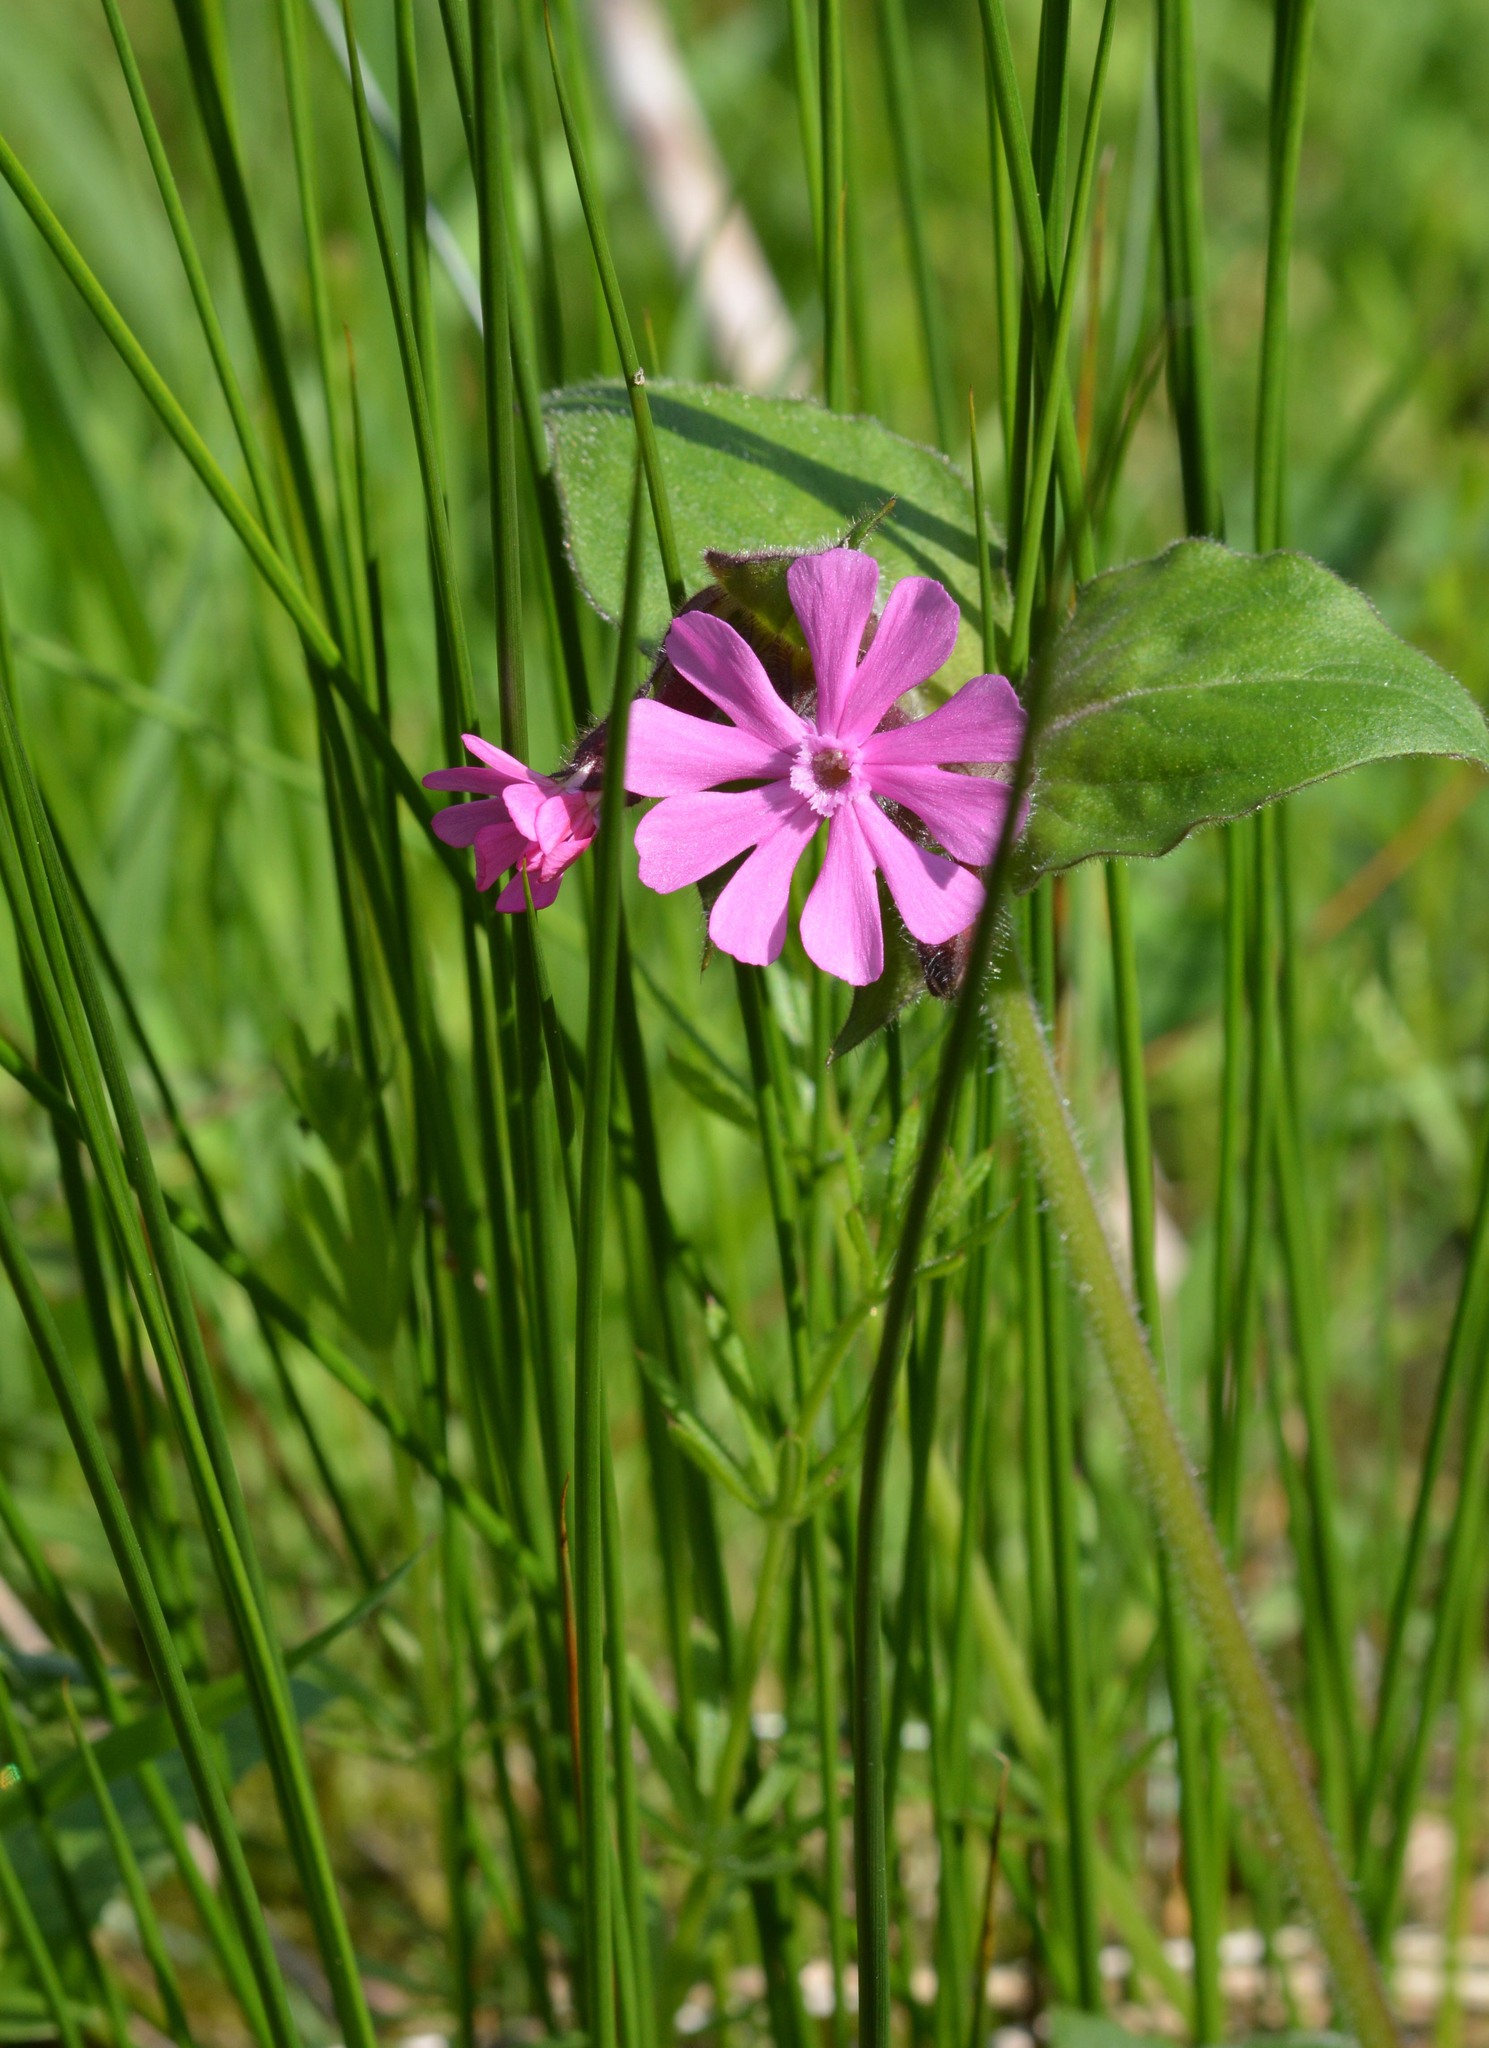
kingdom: Plantae
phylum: Tracheophyta
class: Magnoliopsida
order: Caryophyllales
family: Caryophyllaceae
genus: Silene
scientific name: Silene dioica
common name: Red campion
